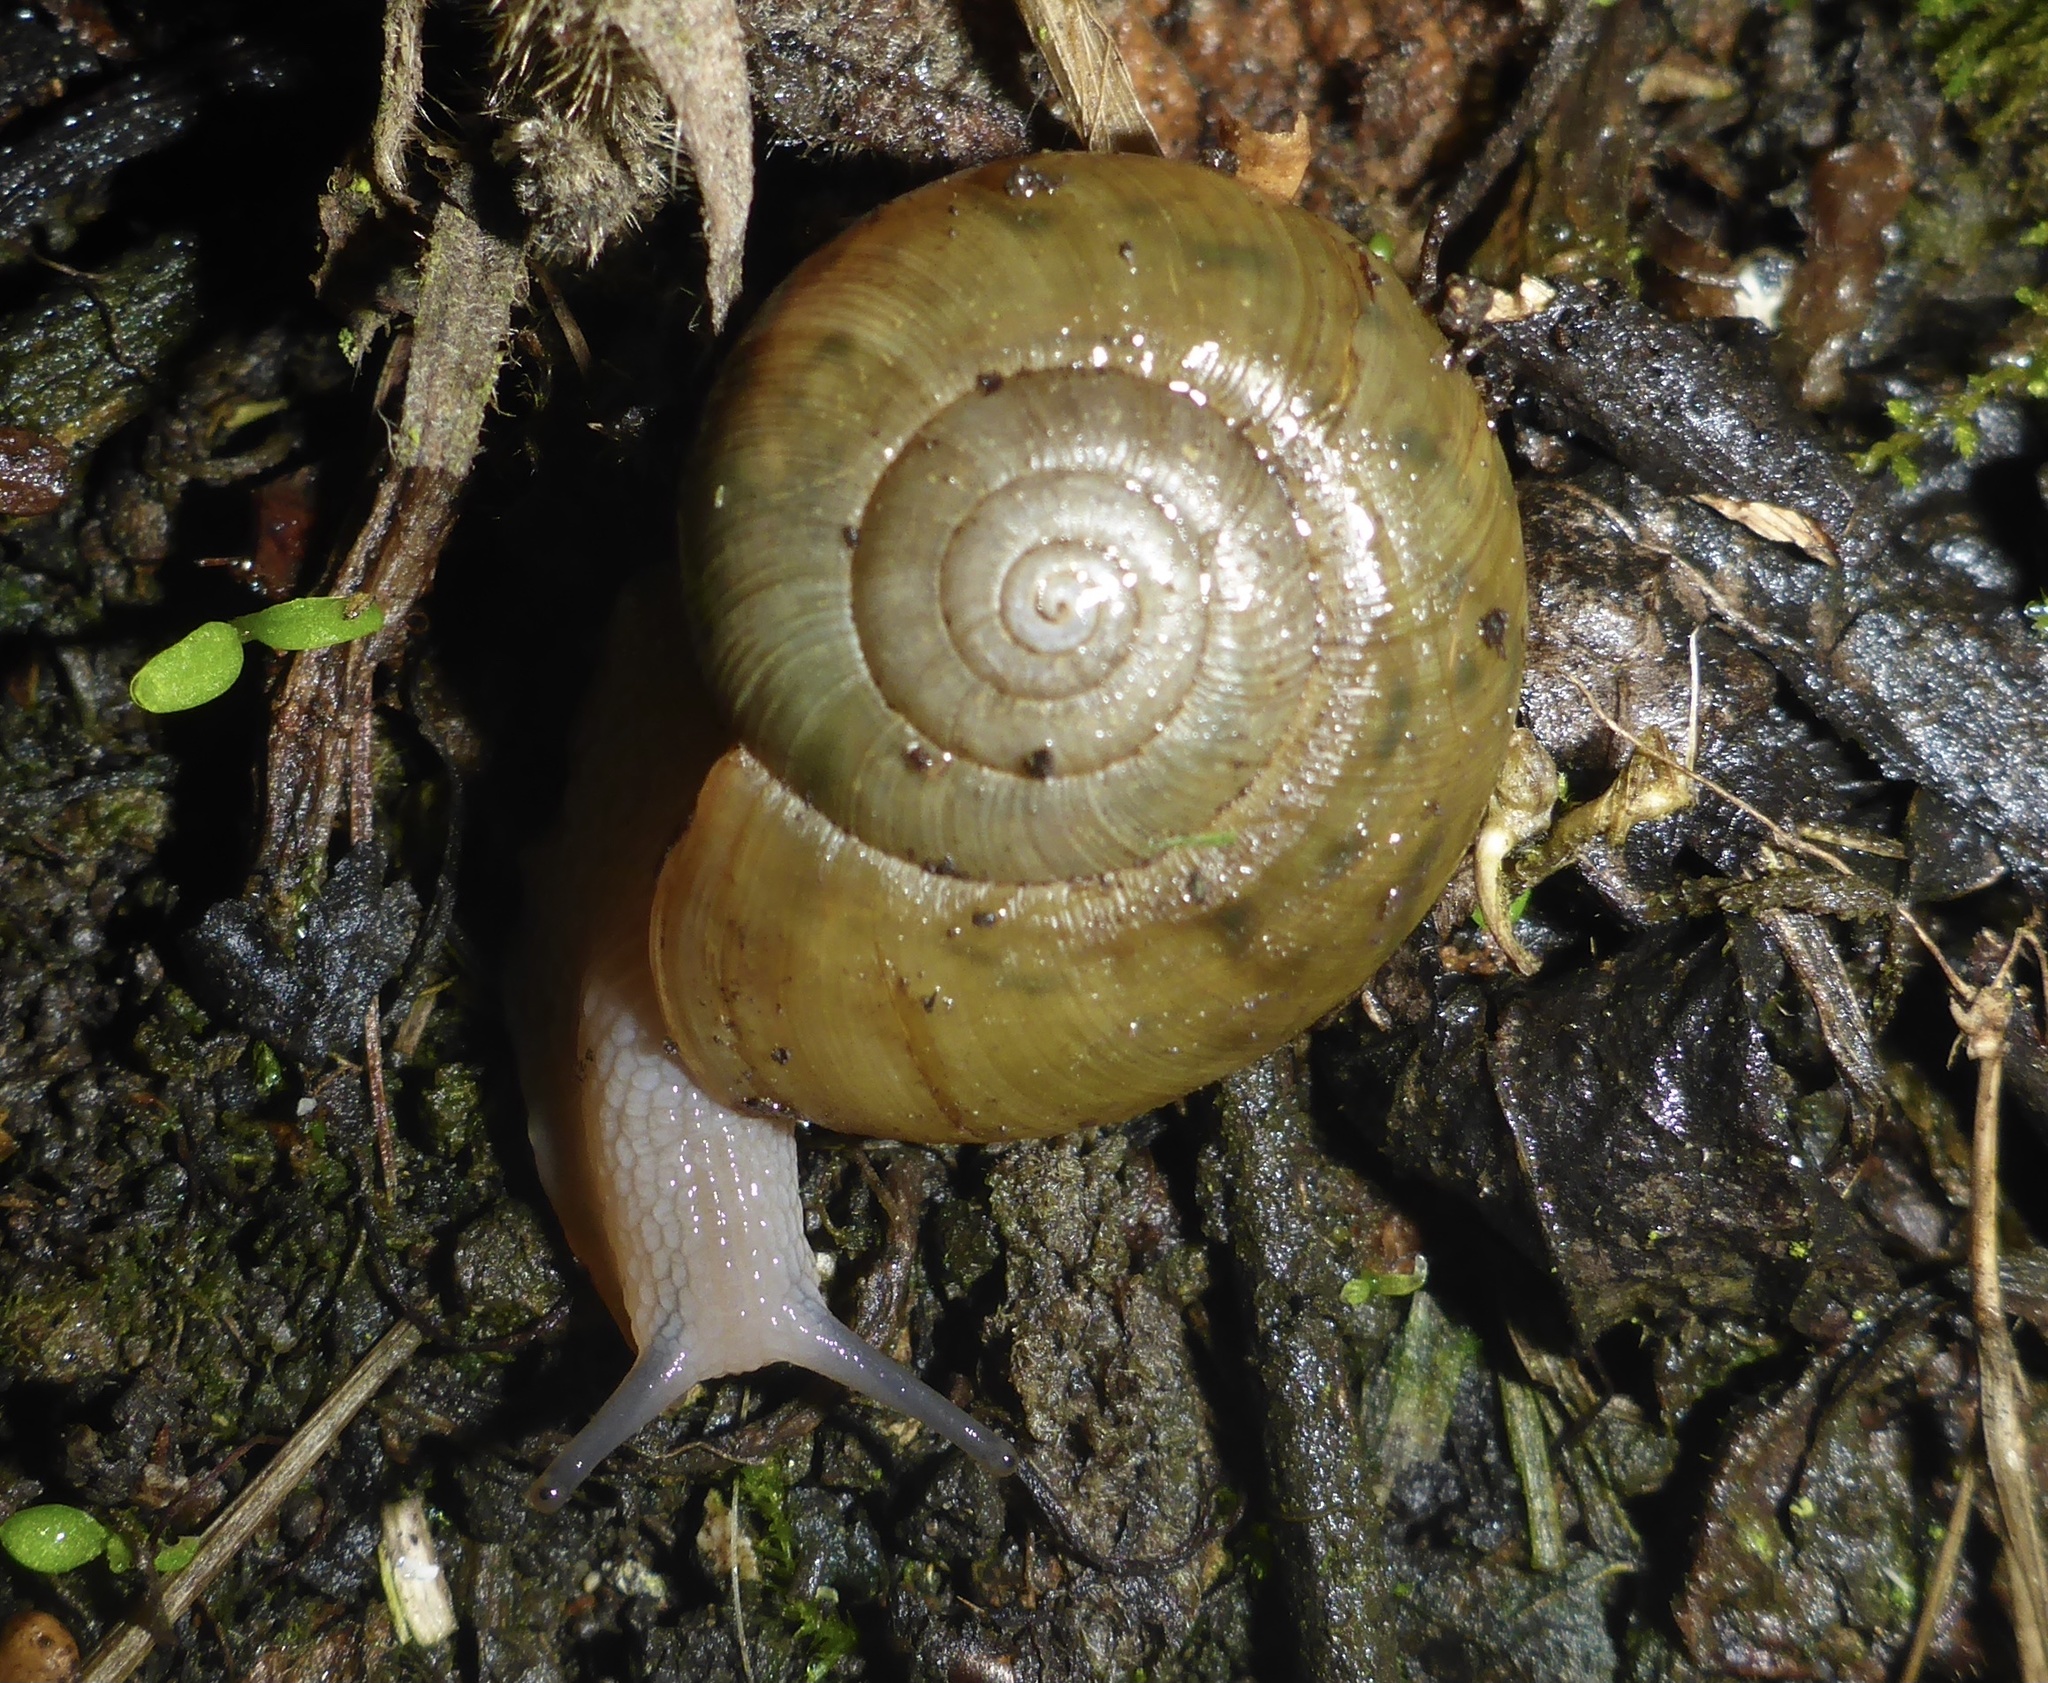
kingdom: Animalia
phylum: Mollusca
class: Gastropoda
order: Stylommatophora
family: Haplotrematidae
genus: Haplotrema
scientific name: Haplotrema minimum
